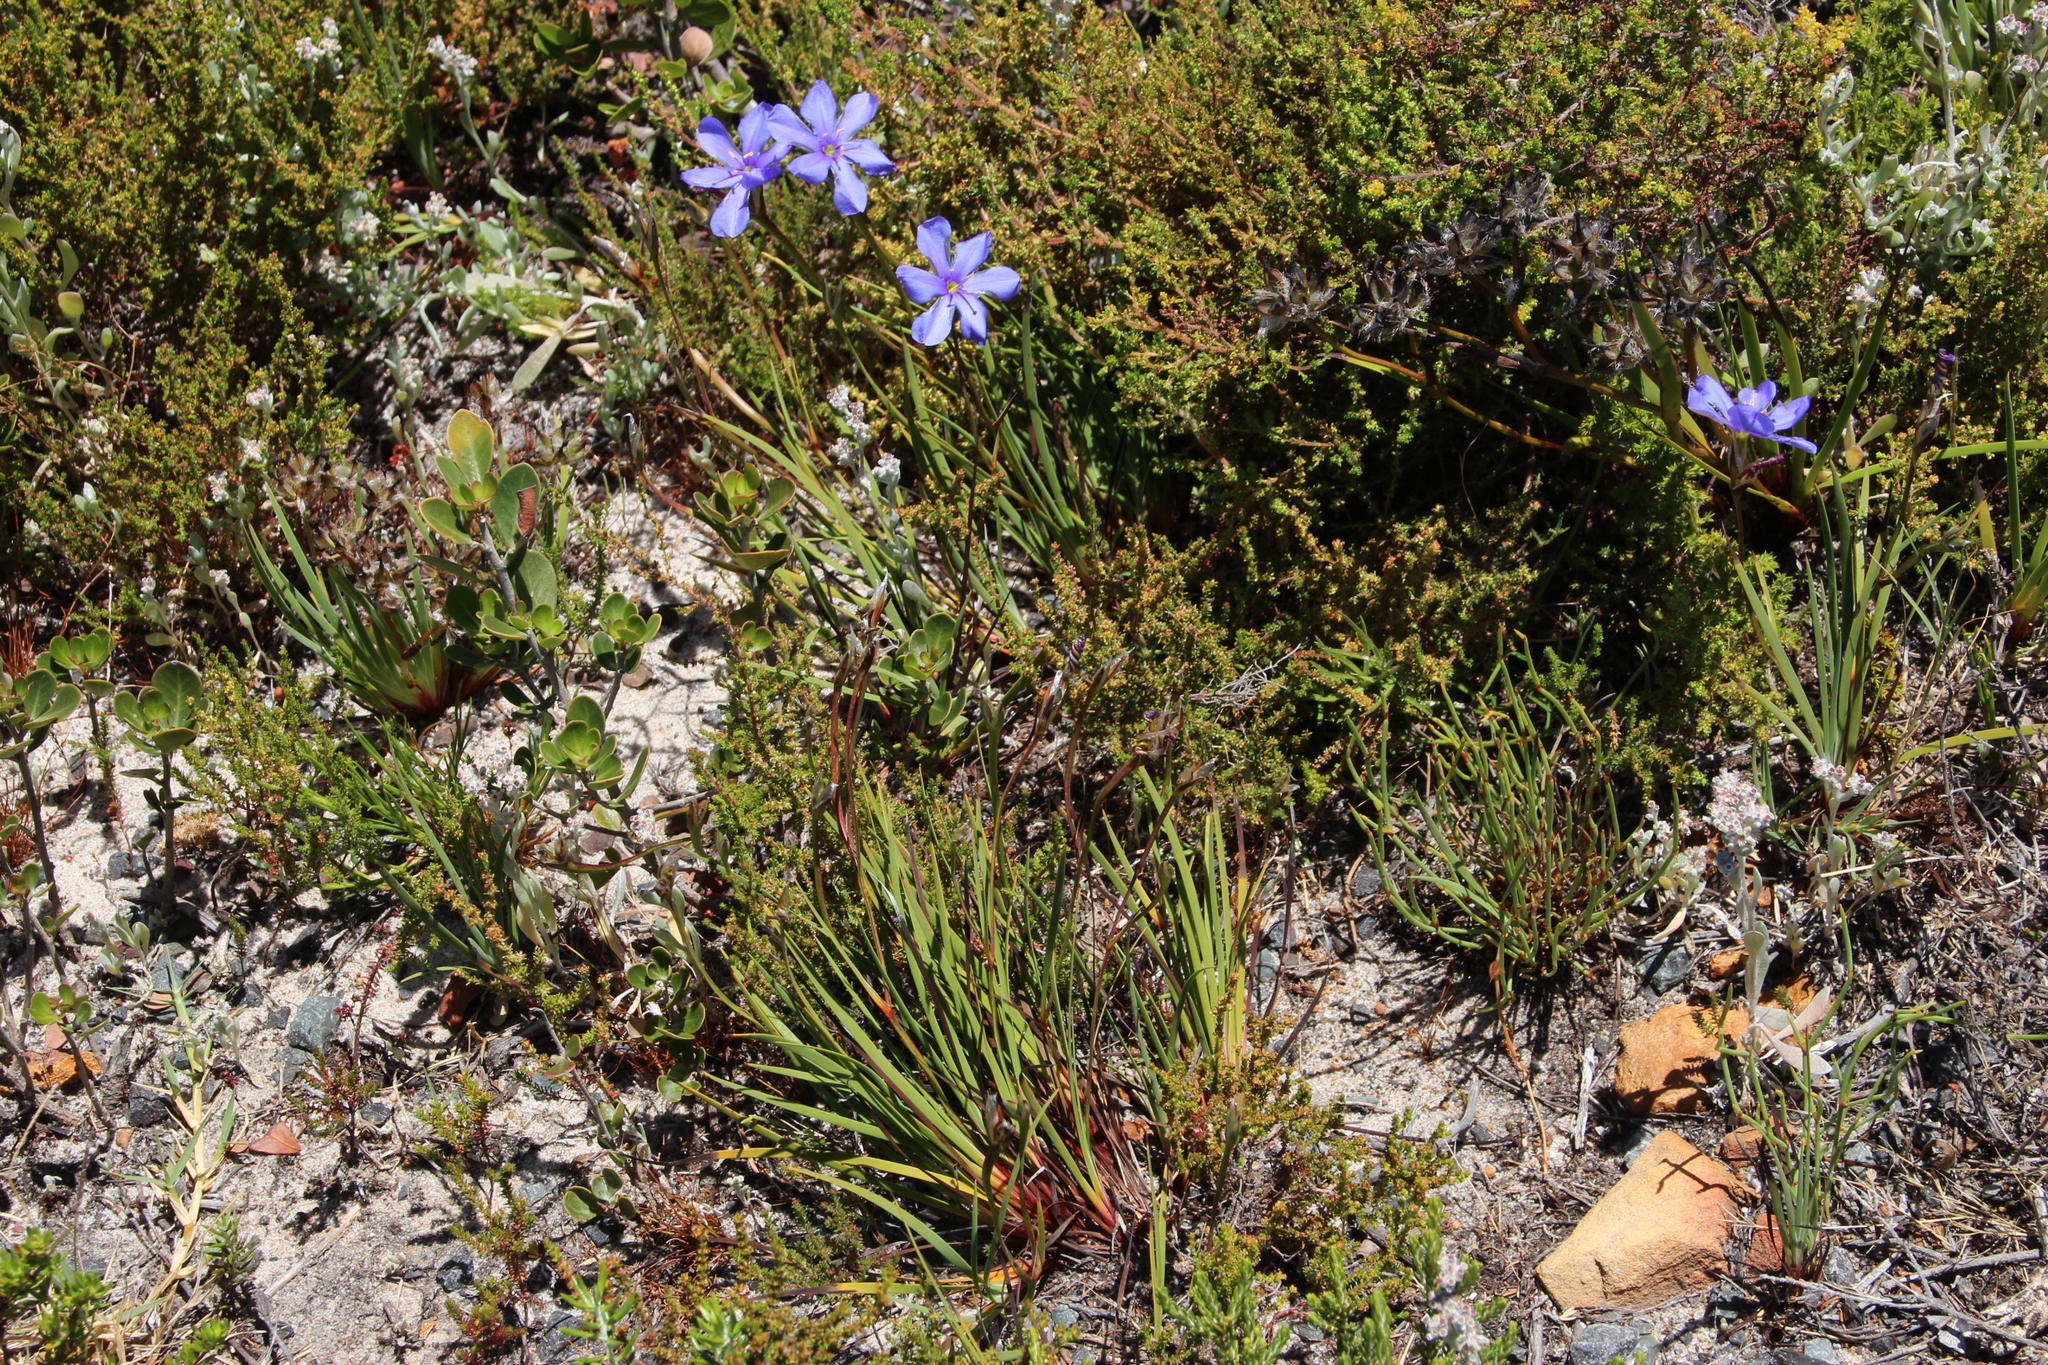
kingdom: Plantae
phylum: Tracheophyta
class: Liliopsida
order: Asparagales
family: Iridaceae
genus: Aristea
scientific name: Aristea africana
